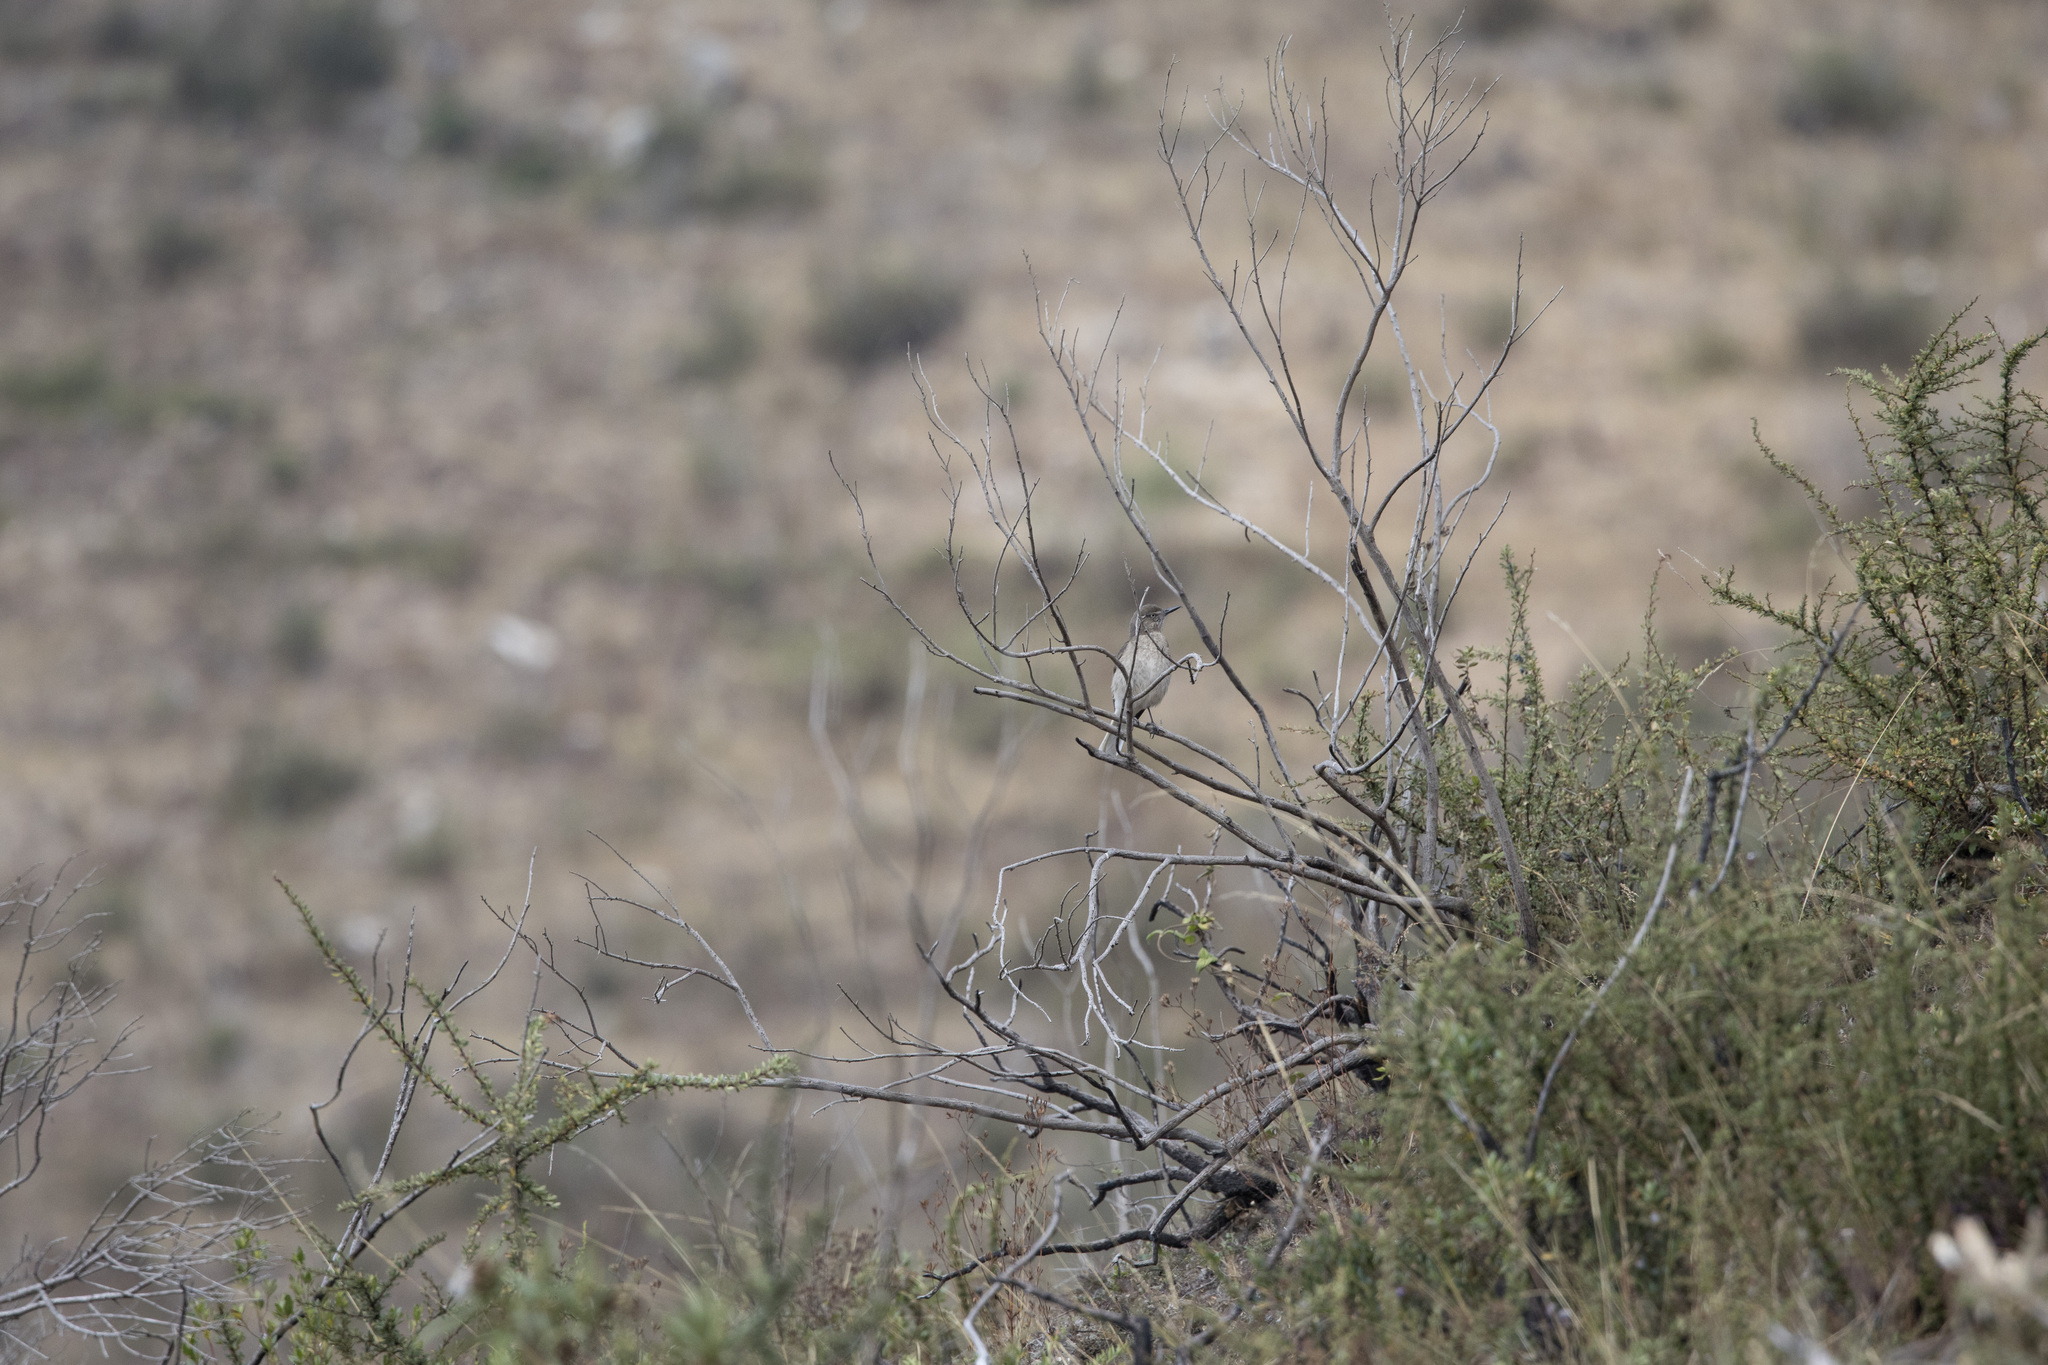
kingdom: Animalia
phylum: Chordata
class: Aves
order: Passeriformes
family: Tyrannidae
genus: Agriornis
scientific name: Agriornis montanus
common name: Black-billed shrike-tyrant
